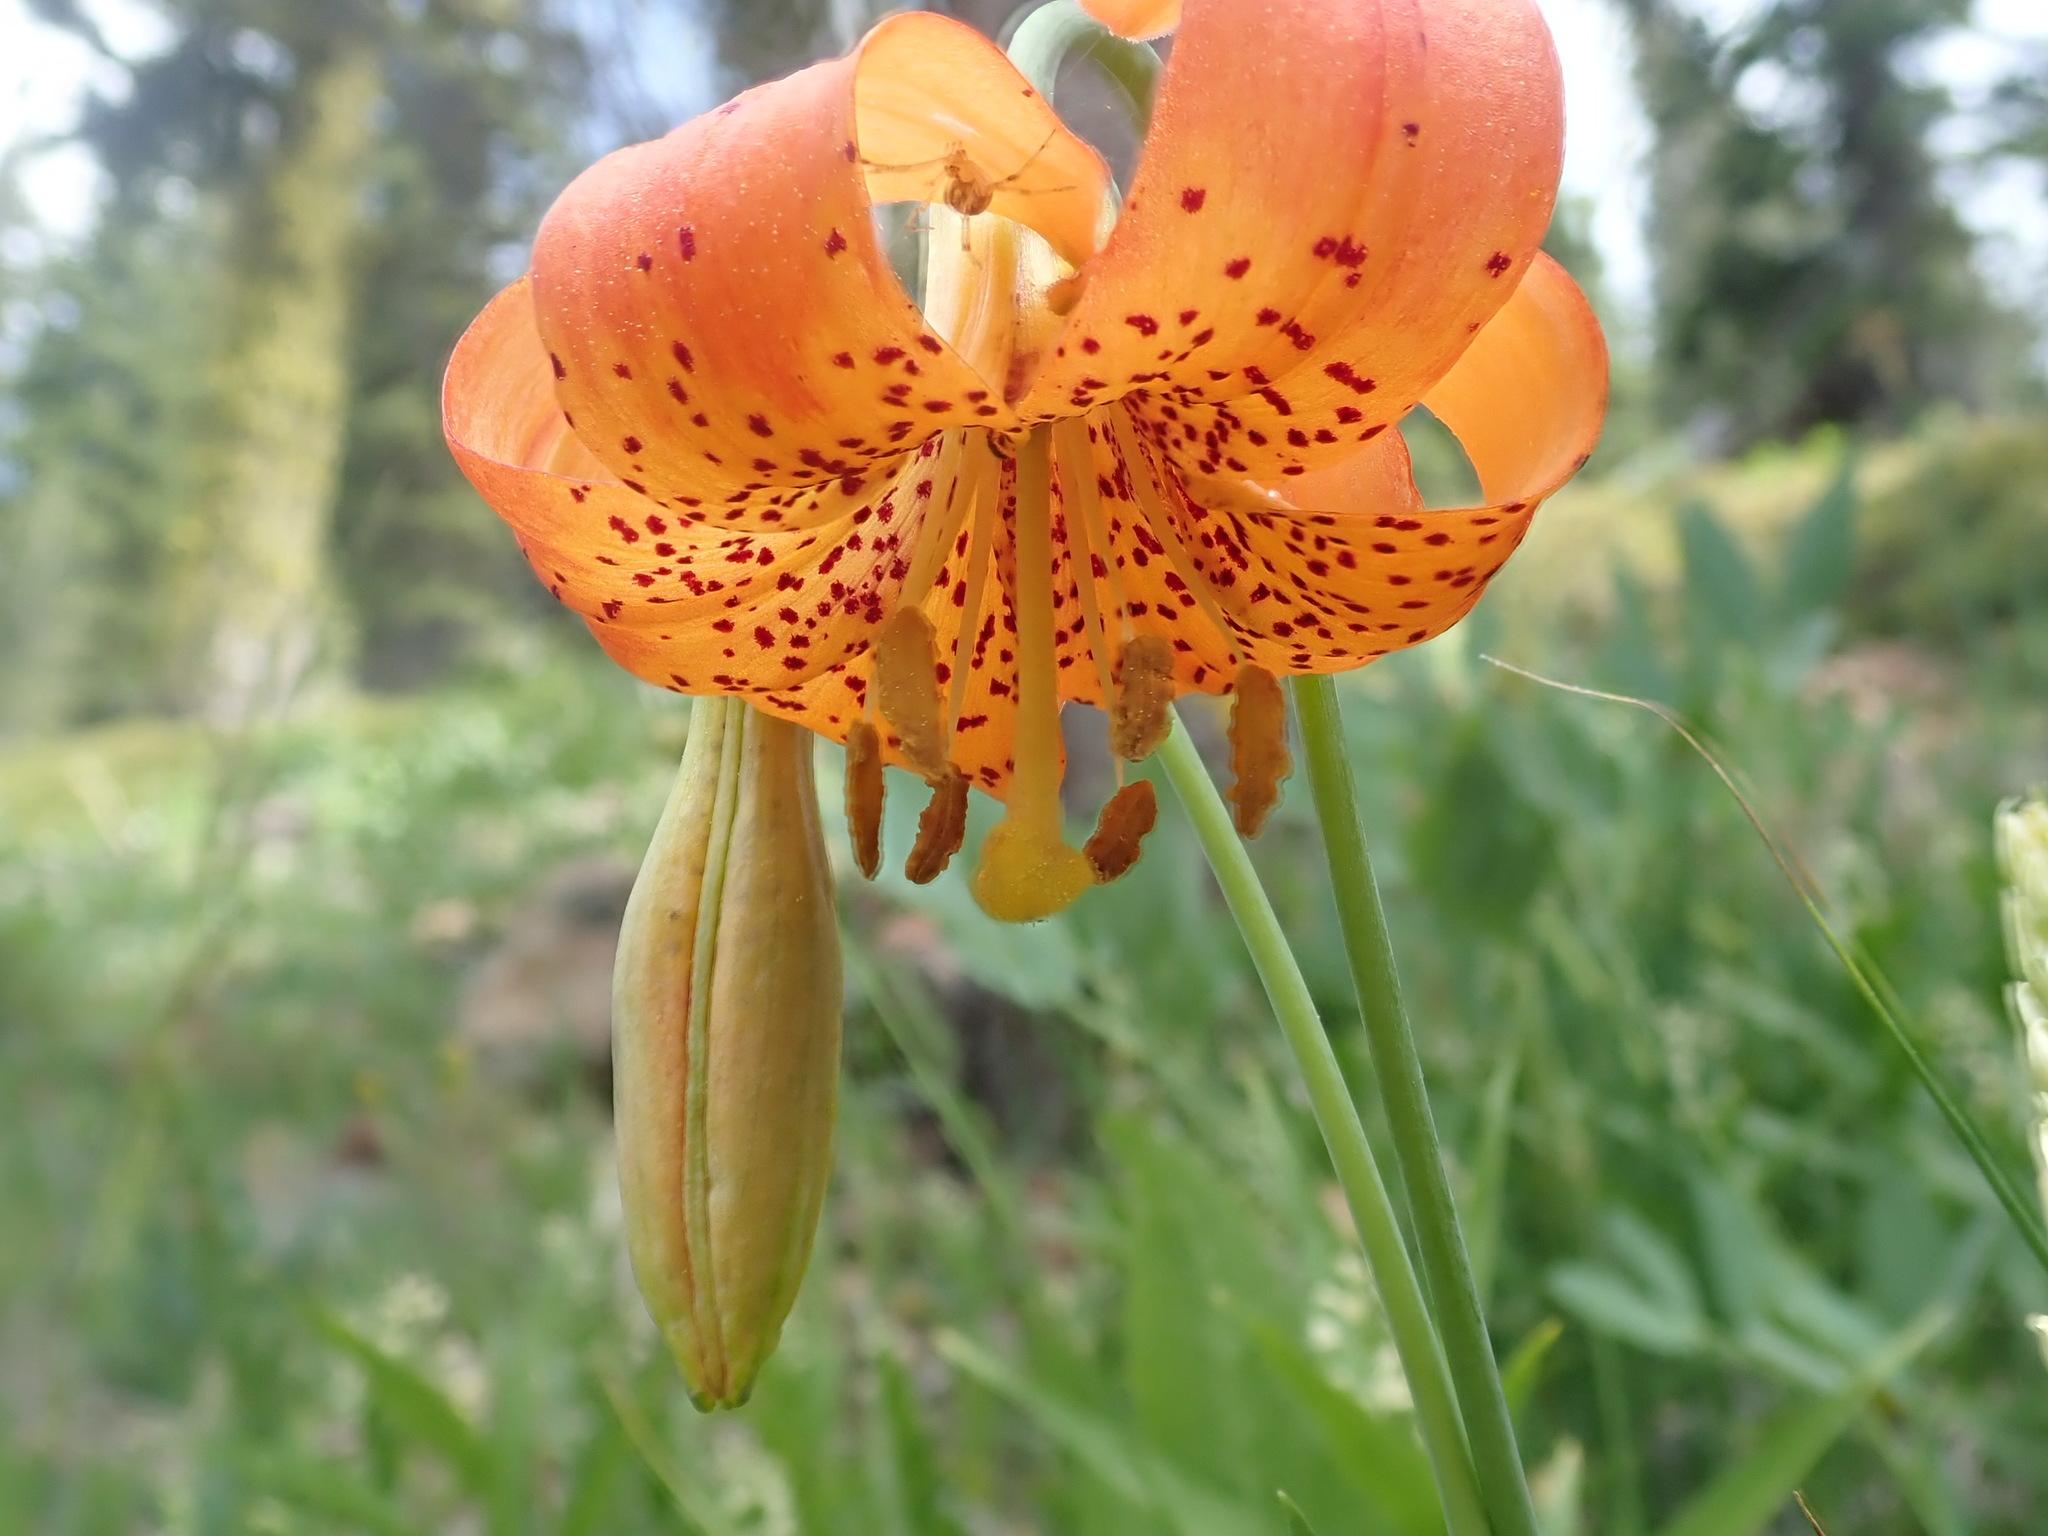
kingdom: Plantae
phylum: Tracheophyta
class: Liliopsida
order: Liliales
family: Liliaceae
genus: Lilium
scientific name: Lilium pardalinum
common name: Panther lily
